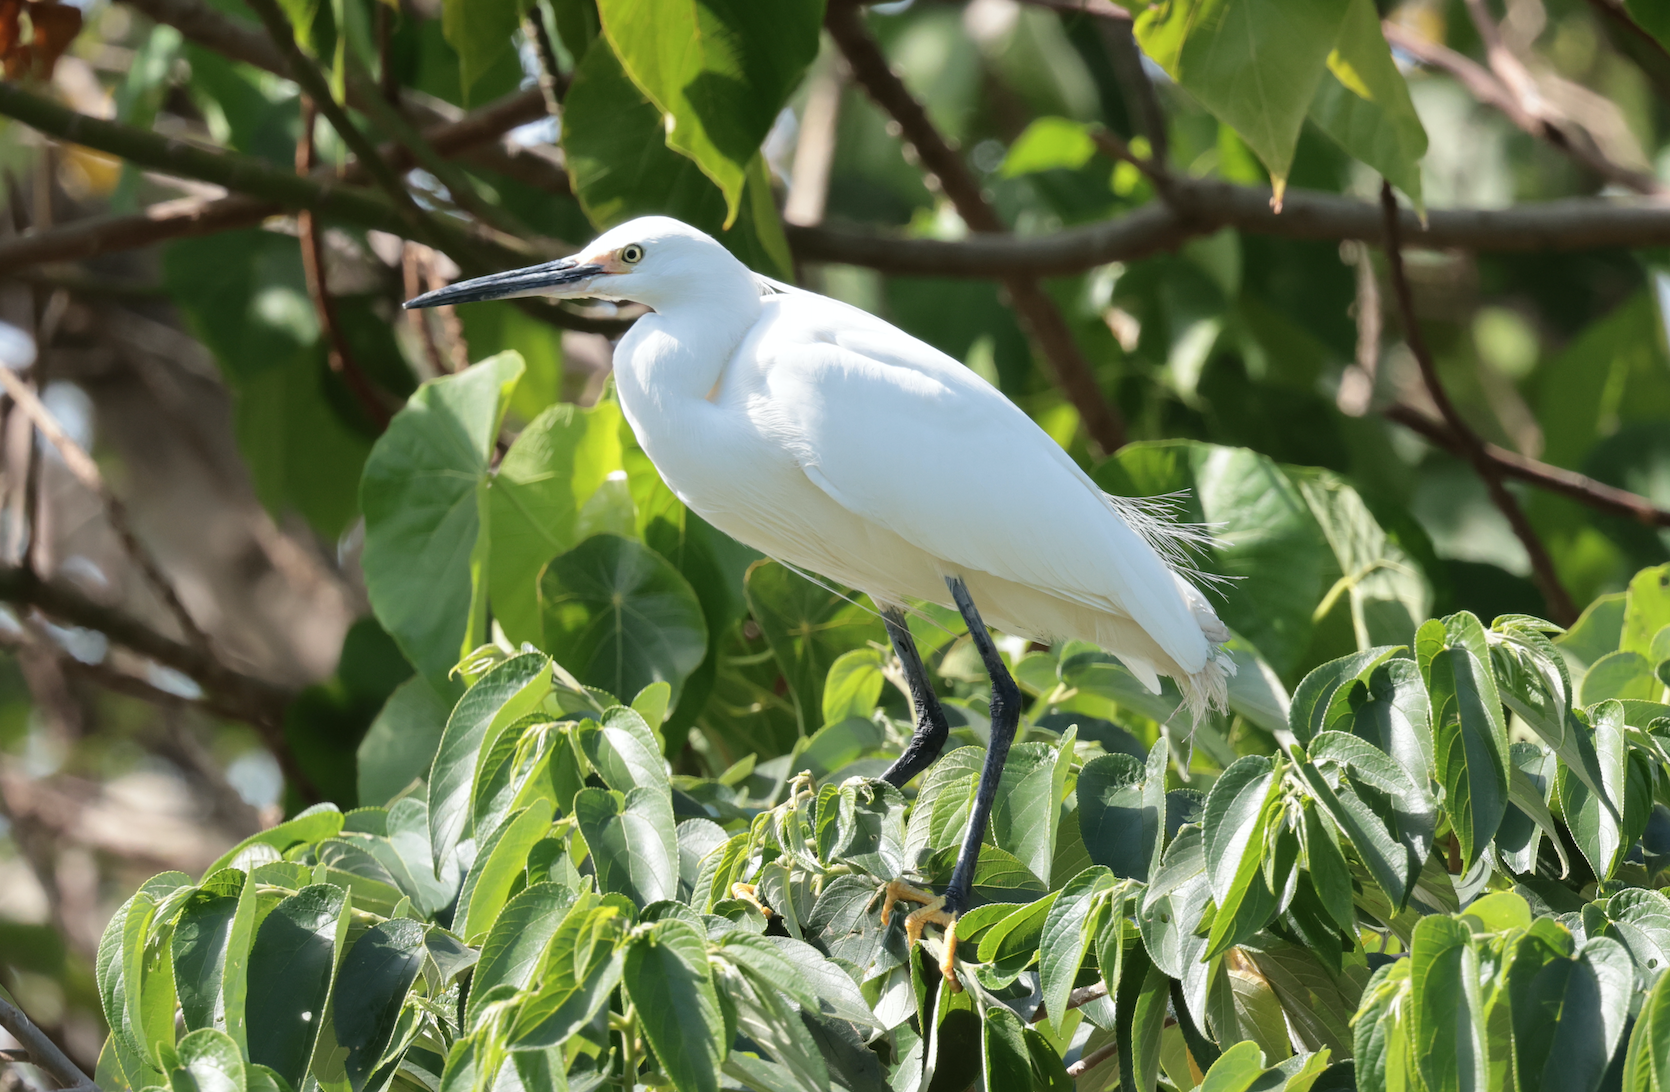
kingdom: Animalia
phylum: Chordata
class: Aves
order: Pelecaniformes
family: Ardeidae
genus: Egretta
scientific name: Egretta garzetta
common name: Little egret
